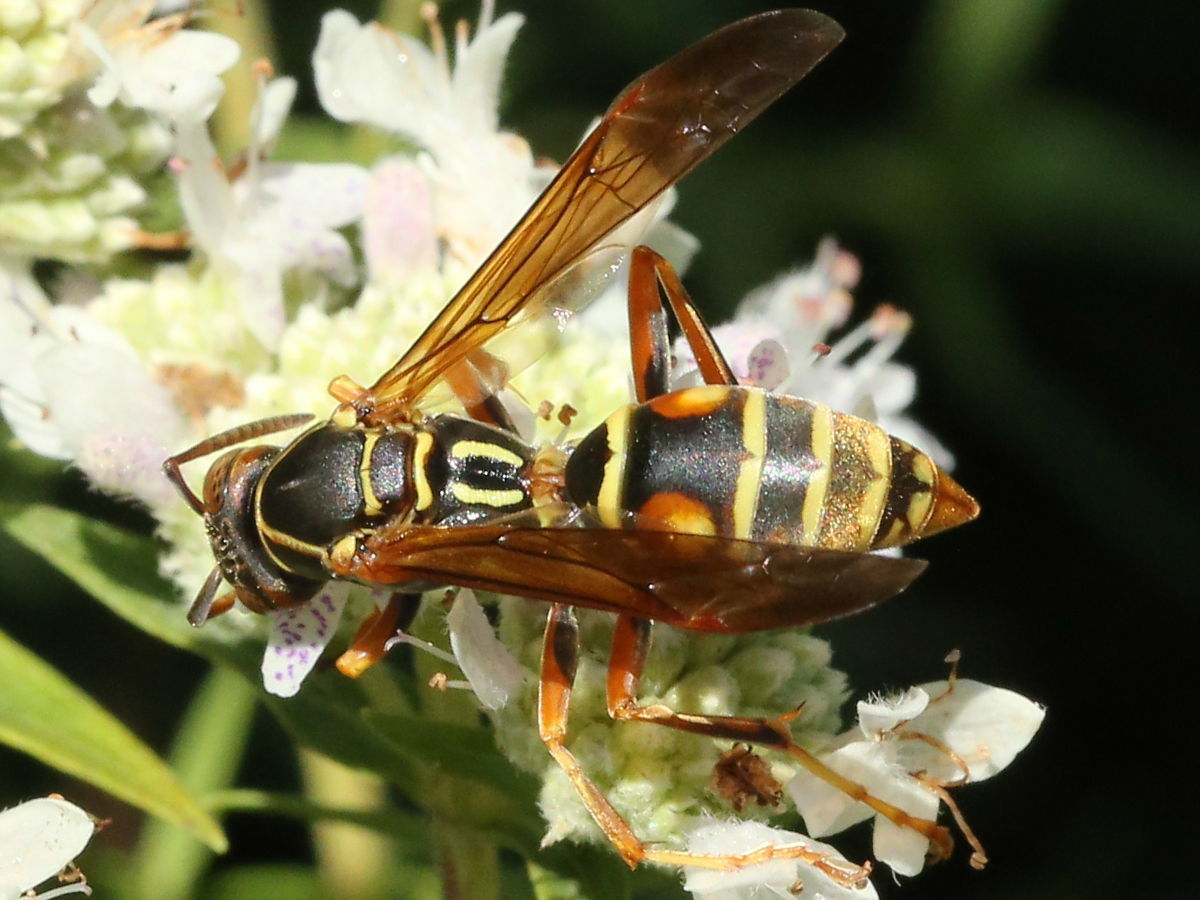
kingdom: Animalia
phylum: Arthropoda
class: Insecta
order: Hymenoptera
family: Eumenidae
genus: Polistes
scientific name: Polistes fuscatus
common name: Dark paper wasp
